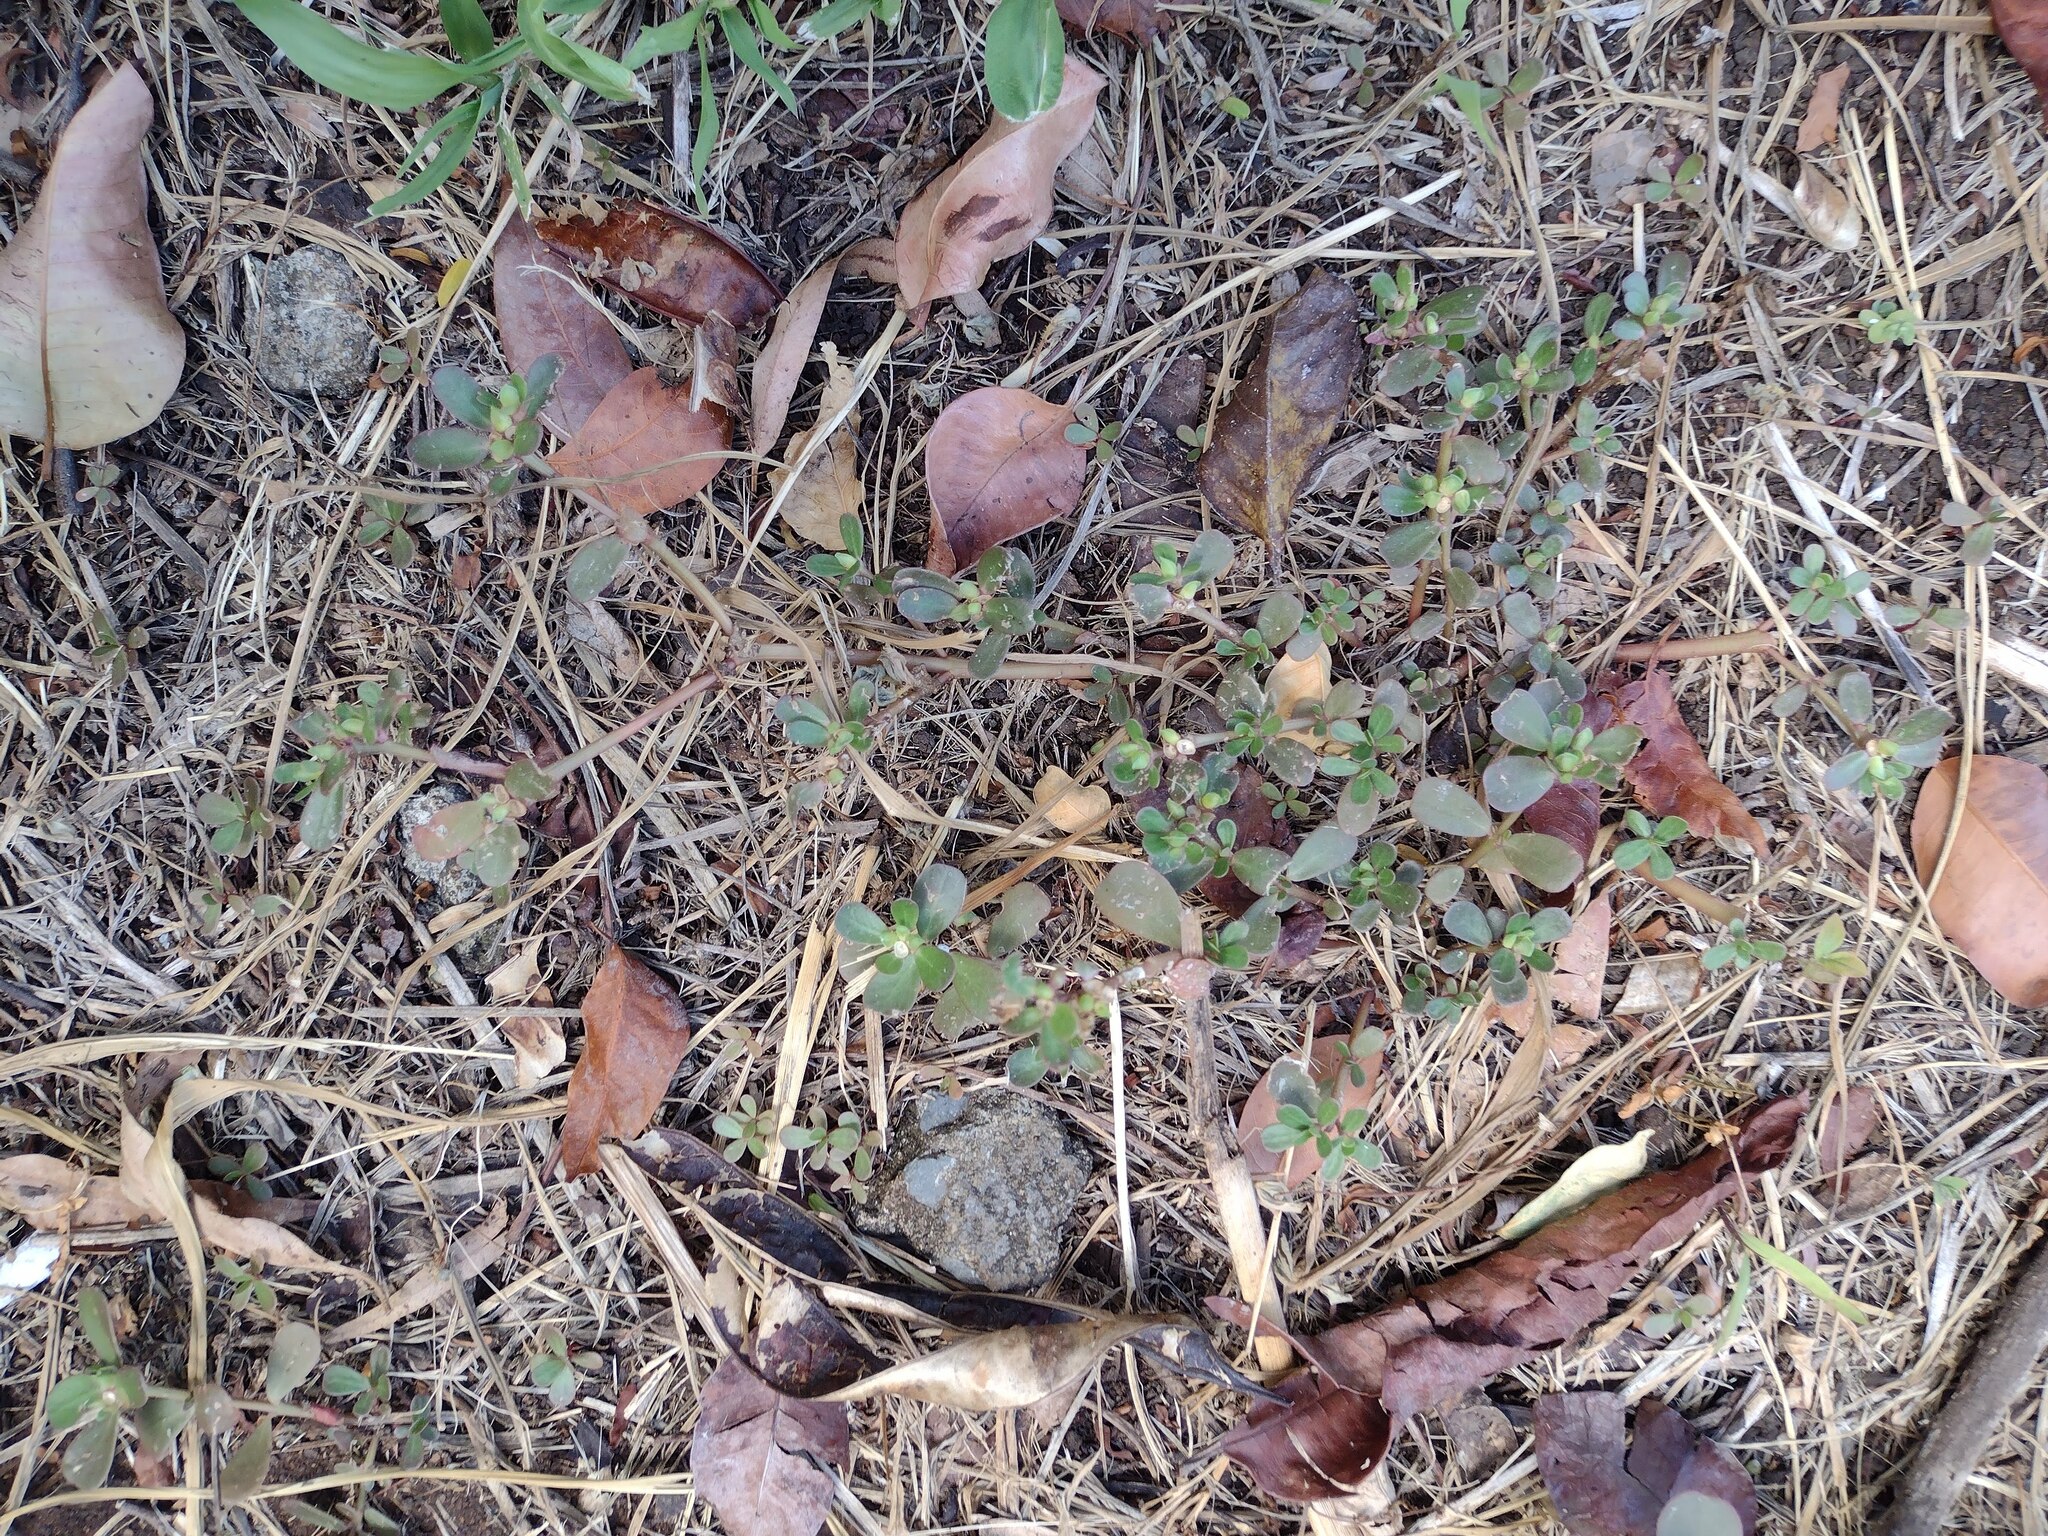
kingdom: Plantae
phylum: Tracheophyta
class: Magnoliopsida
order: Caryophyllales
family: Portulacaceae
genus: Portulaca
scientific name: Portulaca oleracea
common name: Common purslane
